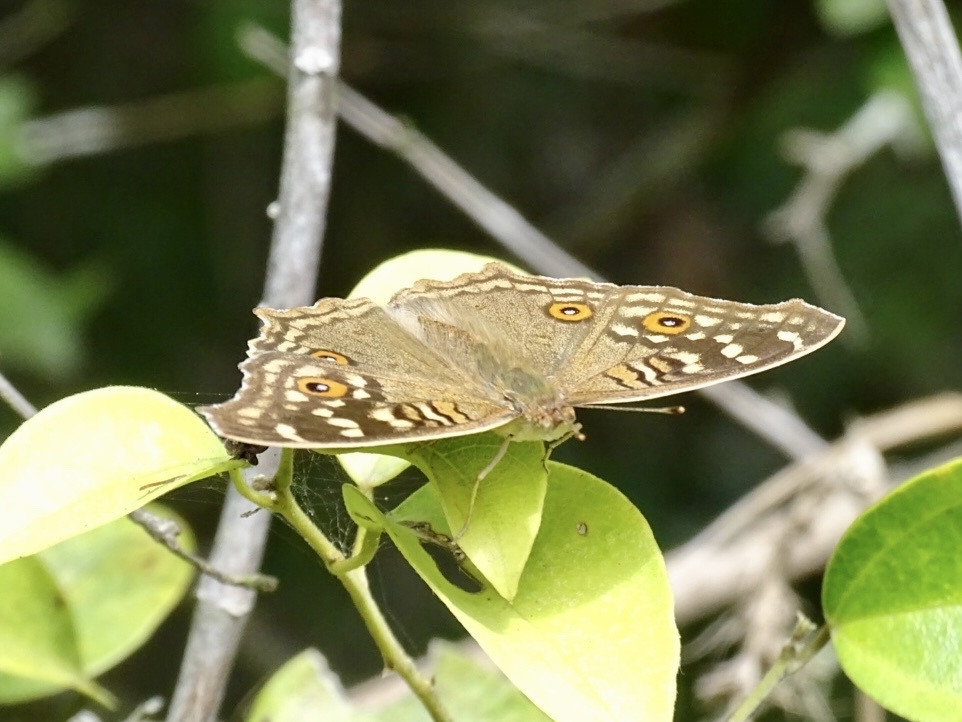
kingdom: Animalia
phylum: Arthropoda
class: Insecta
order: Lepidoptera
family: Nymphalidae
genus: Junonia
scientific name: Junonia lemonias
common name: Lemon pansy
